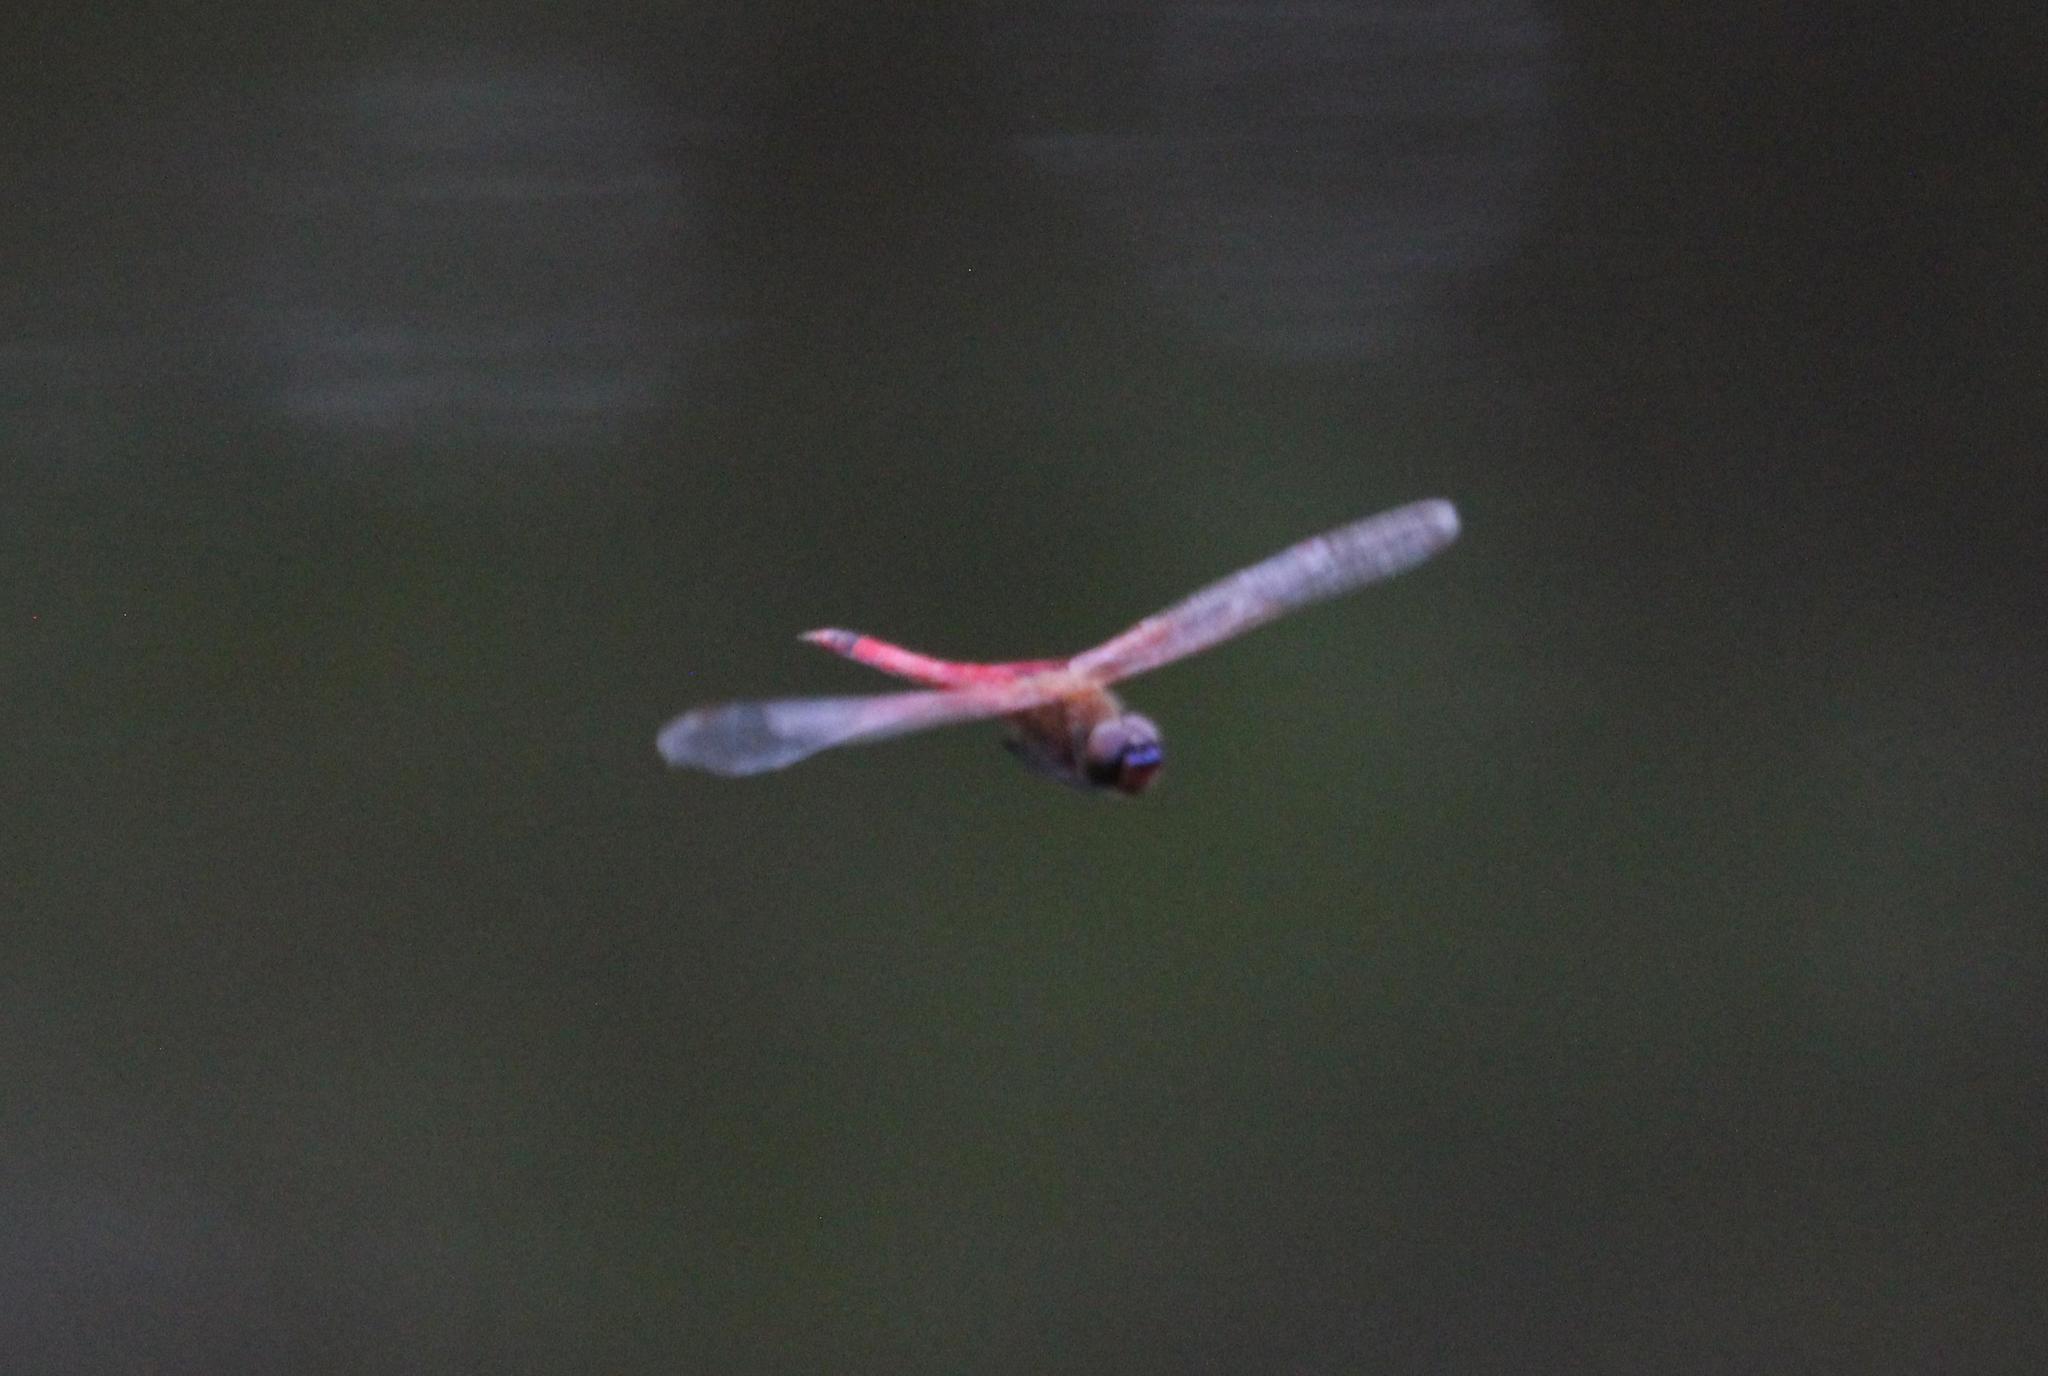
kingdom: Animalia
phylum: Arthropoda
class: Insecta
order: Odonata
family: Libellulidae
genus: Tramea
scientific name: Tramea carolina
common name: Carolina saddlebags
